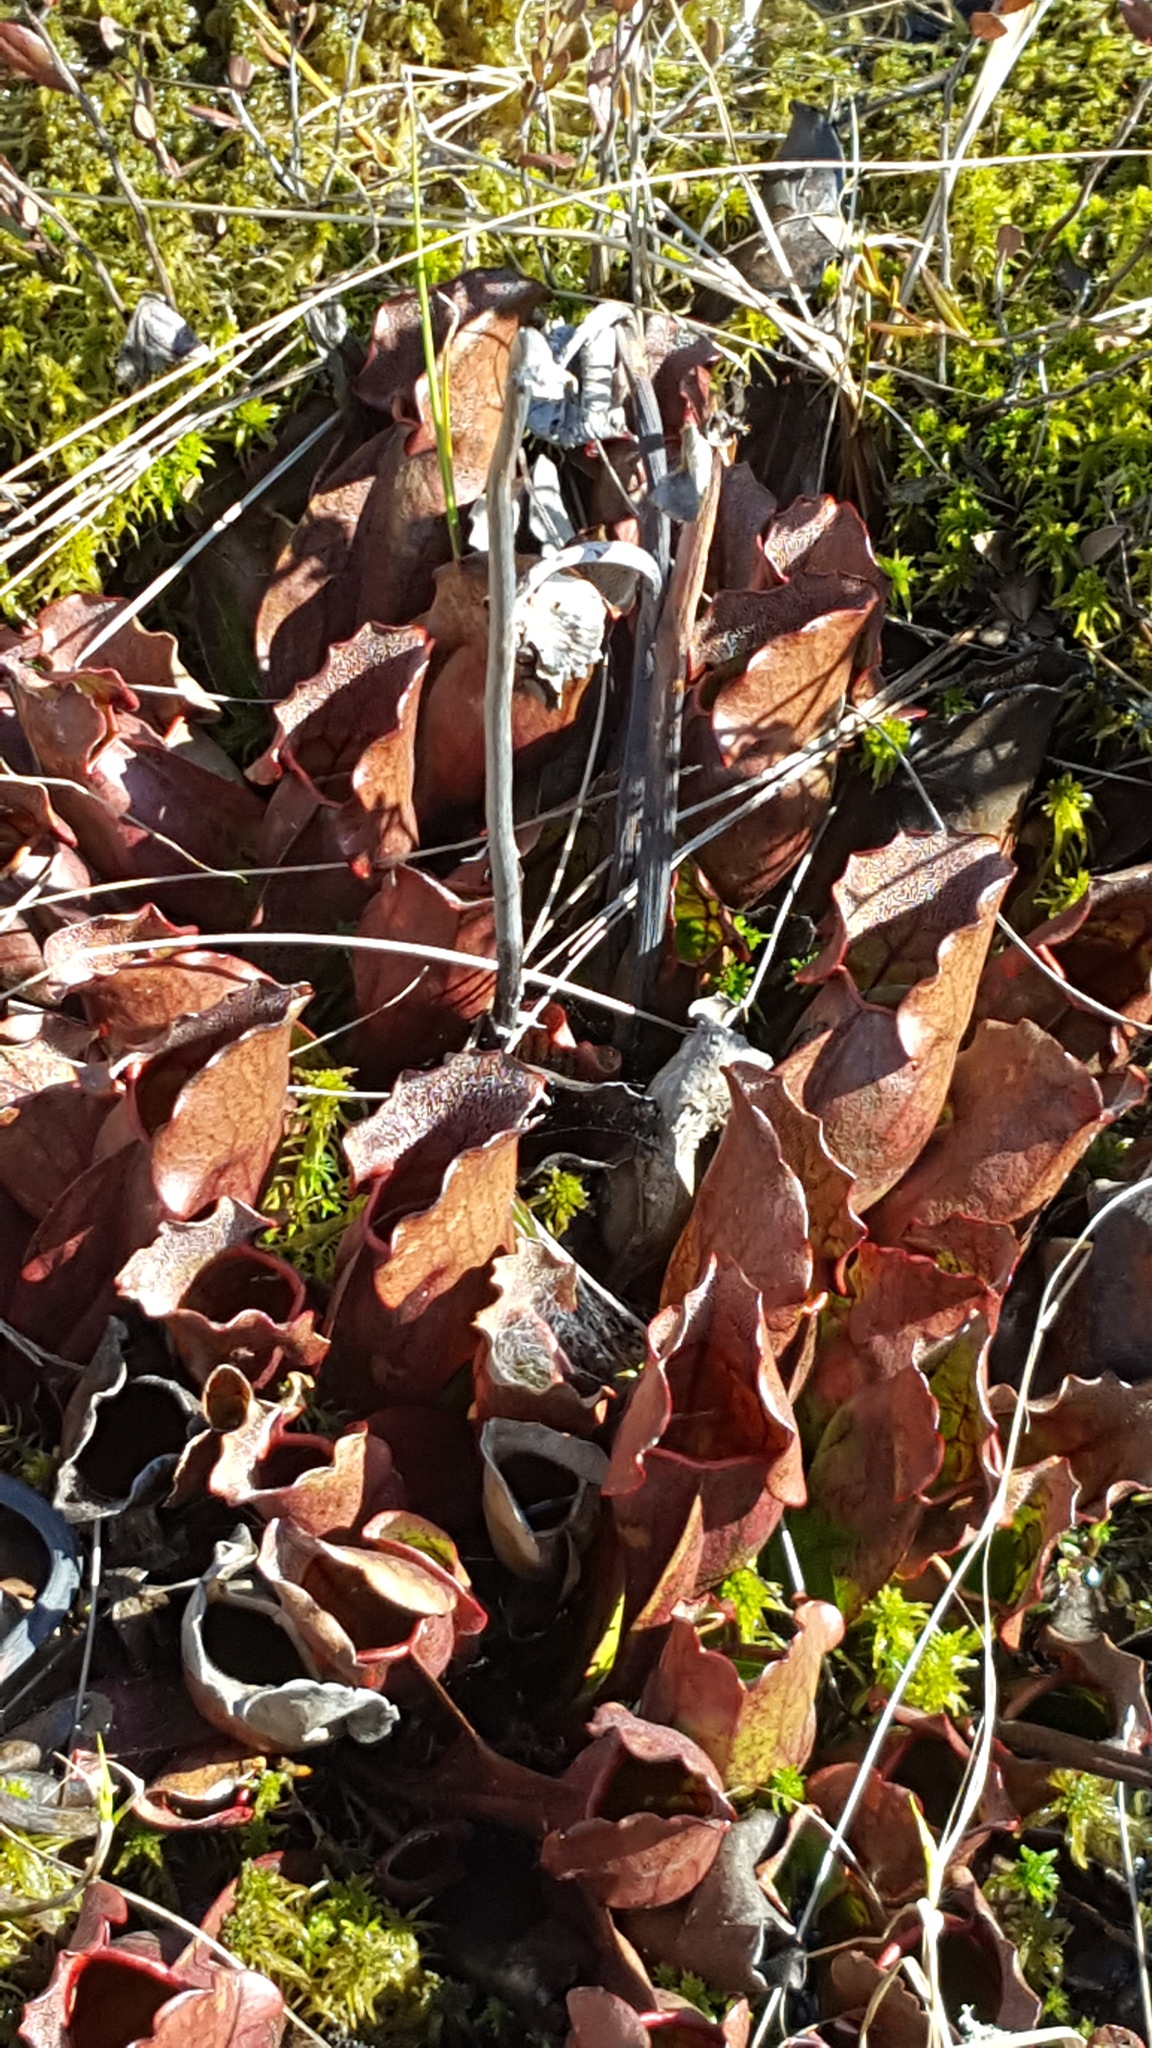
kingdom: Plantae
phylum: Tracheophyta
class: Magnoliopsida
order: Ericales
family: Sarraceniaceae
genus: Sarracenia
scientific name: Sarracenia purpurea
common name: Pitcherplant
